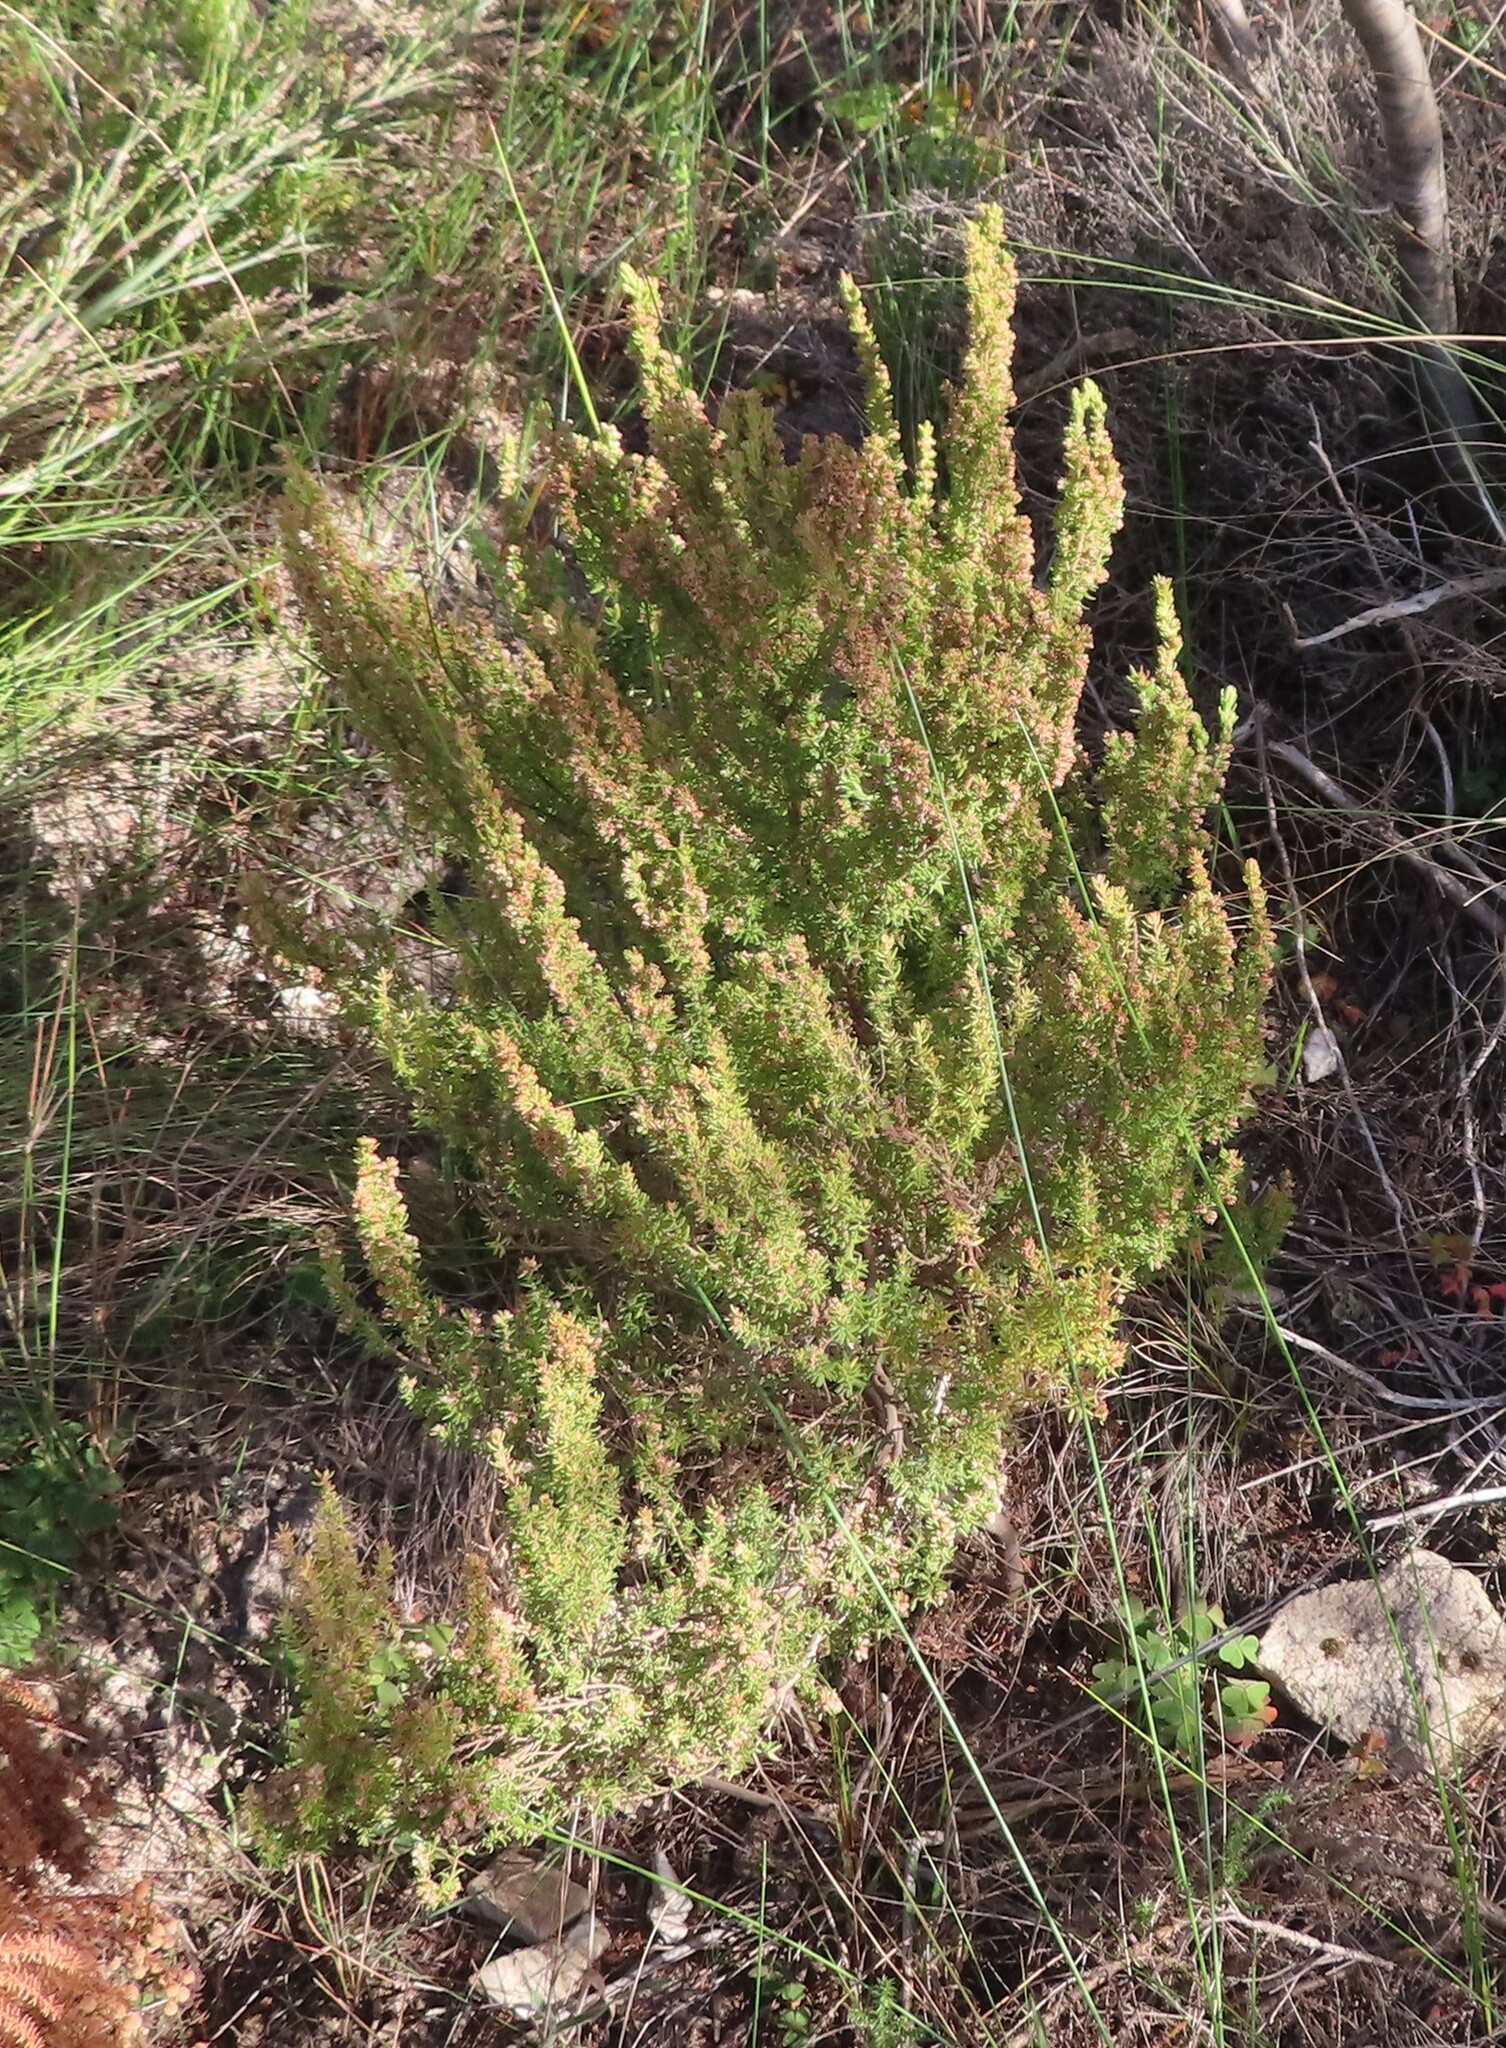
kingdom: Plantae
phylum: Tracheophyta
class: Magnoliopsida
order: Ericales
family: Ericaceae
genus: Erica
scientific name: Erica muscosa
